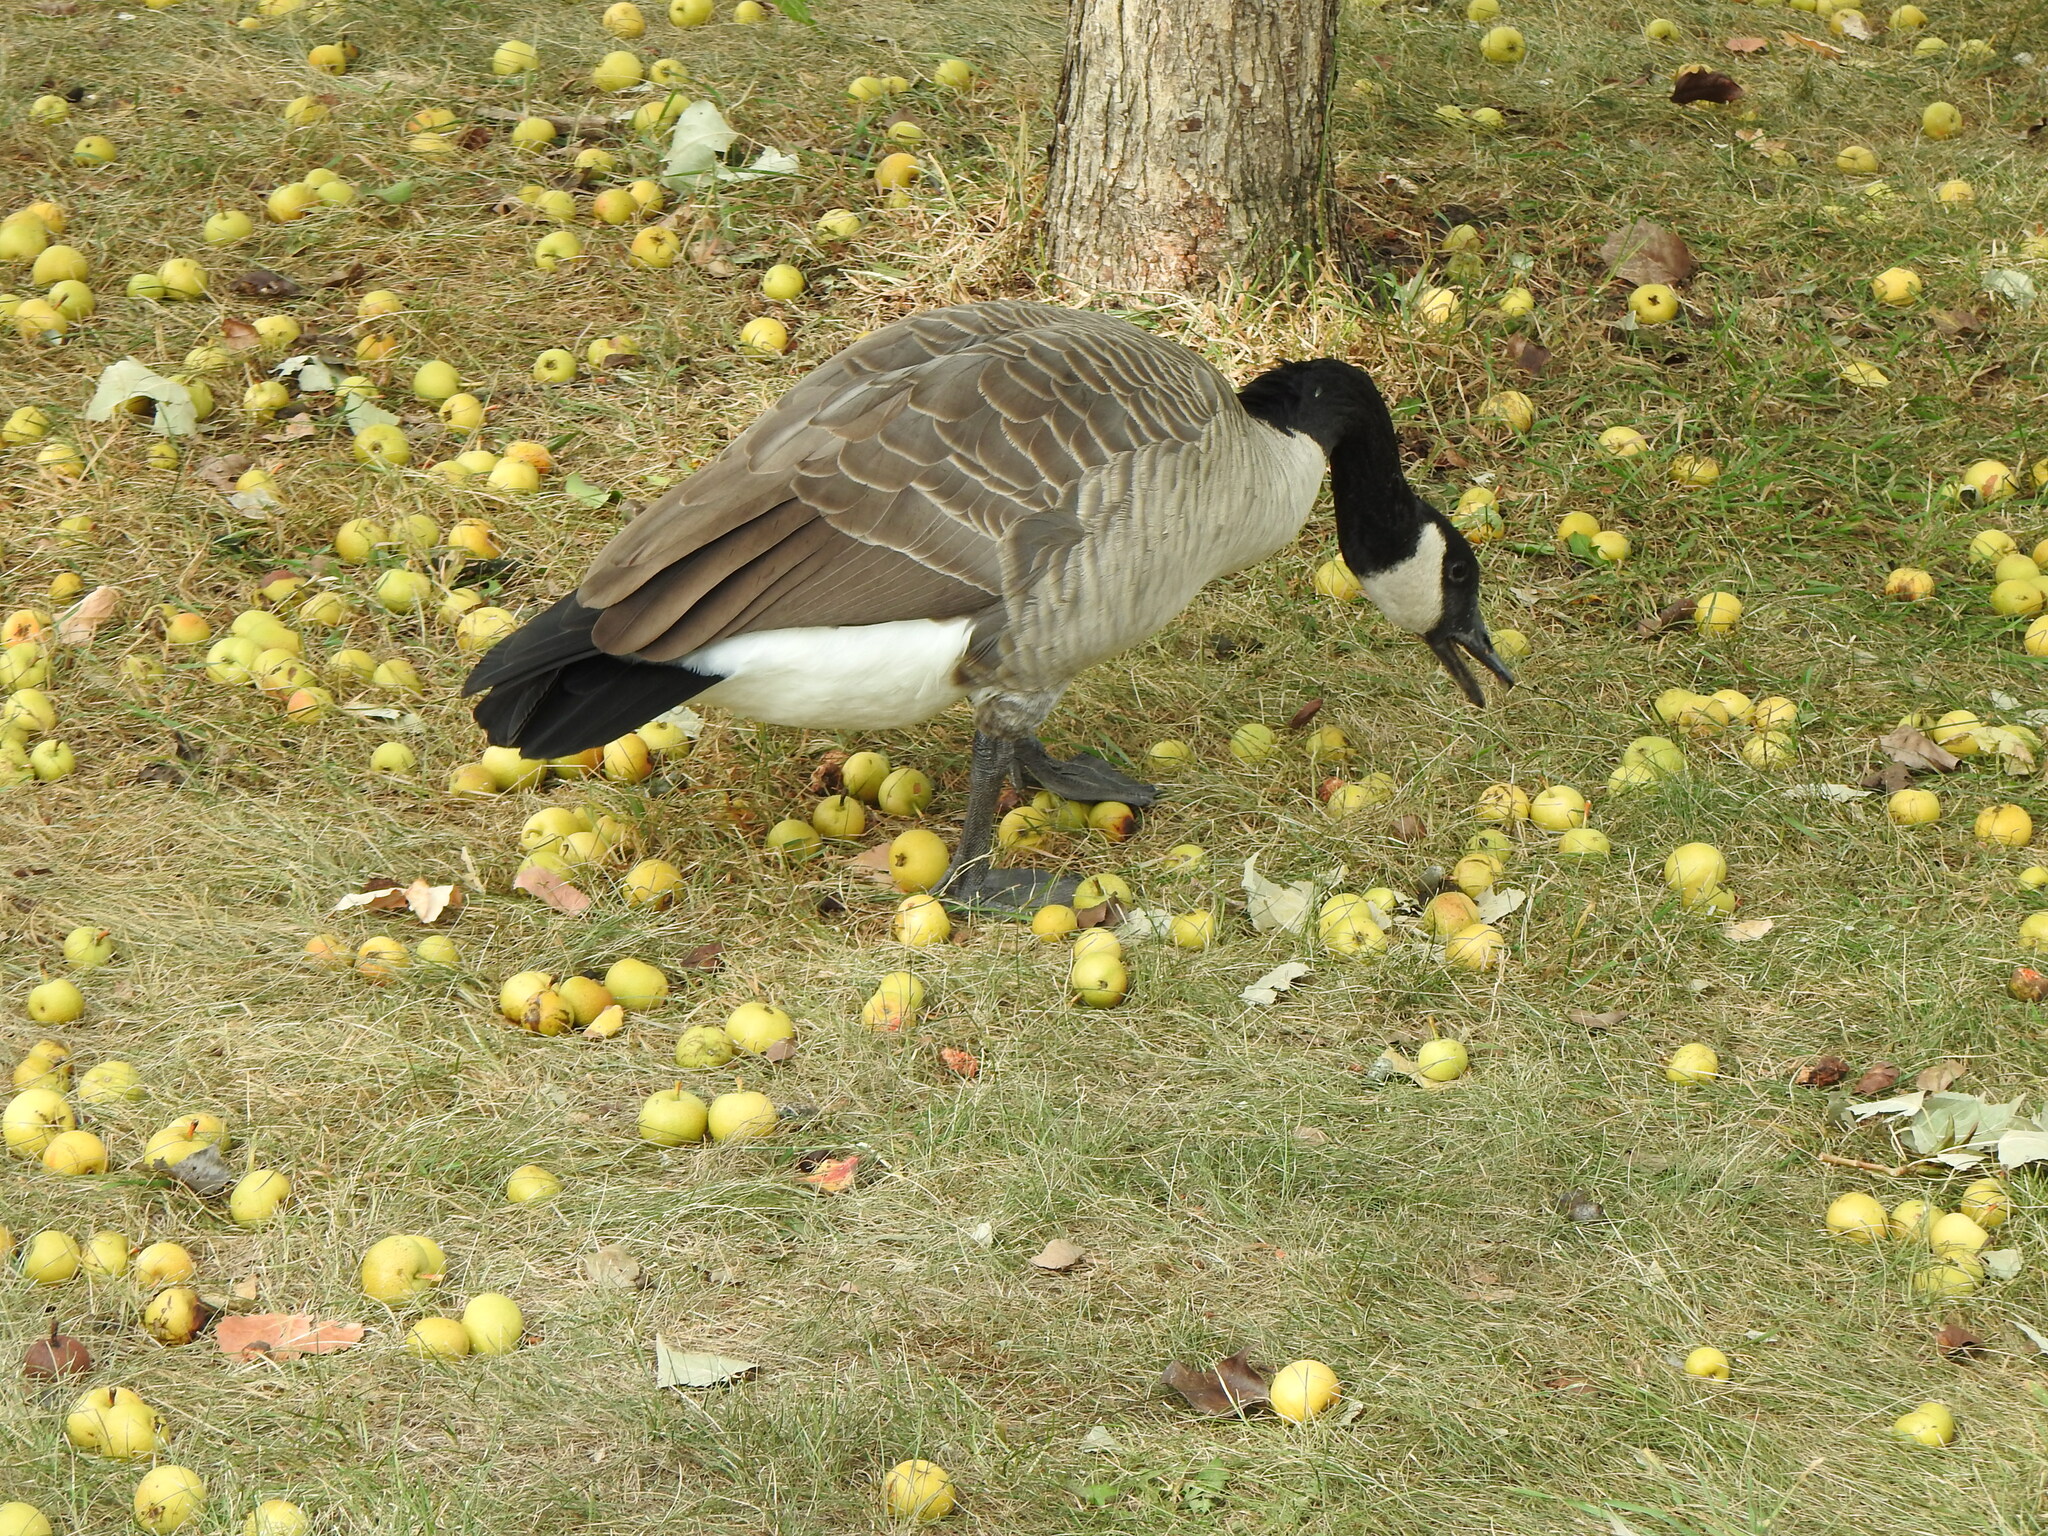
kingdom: Animalia
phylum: Chordata
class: Aves
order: Anseriformes
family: Anatidae
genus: Branta
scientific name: Branta canadensis
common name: Canada goose
